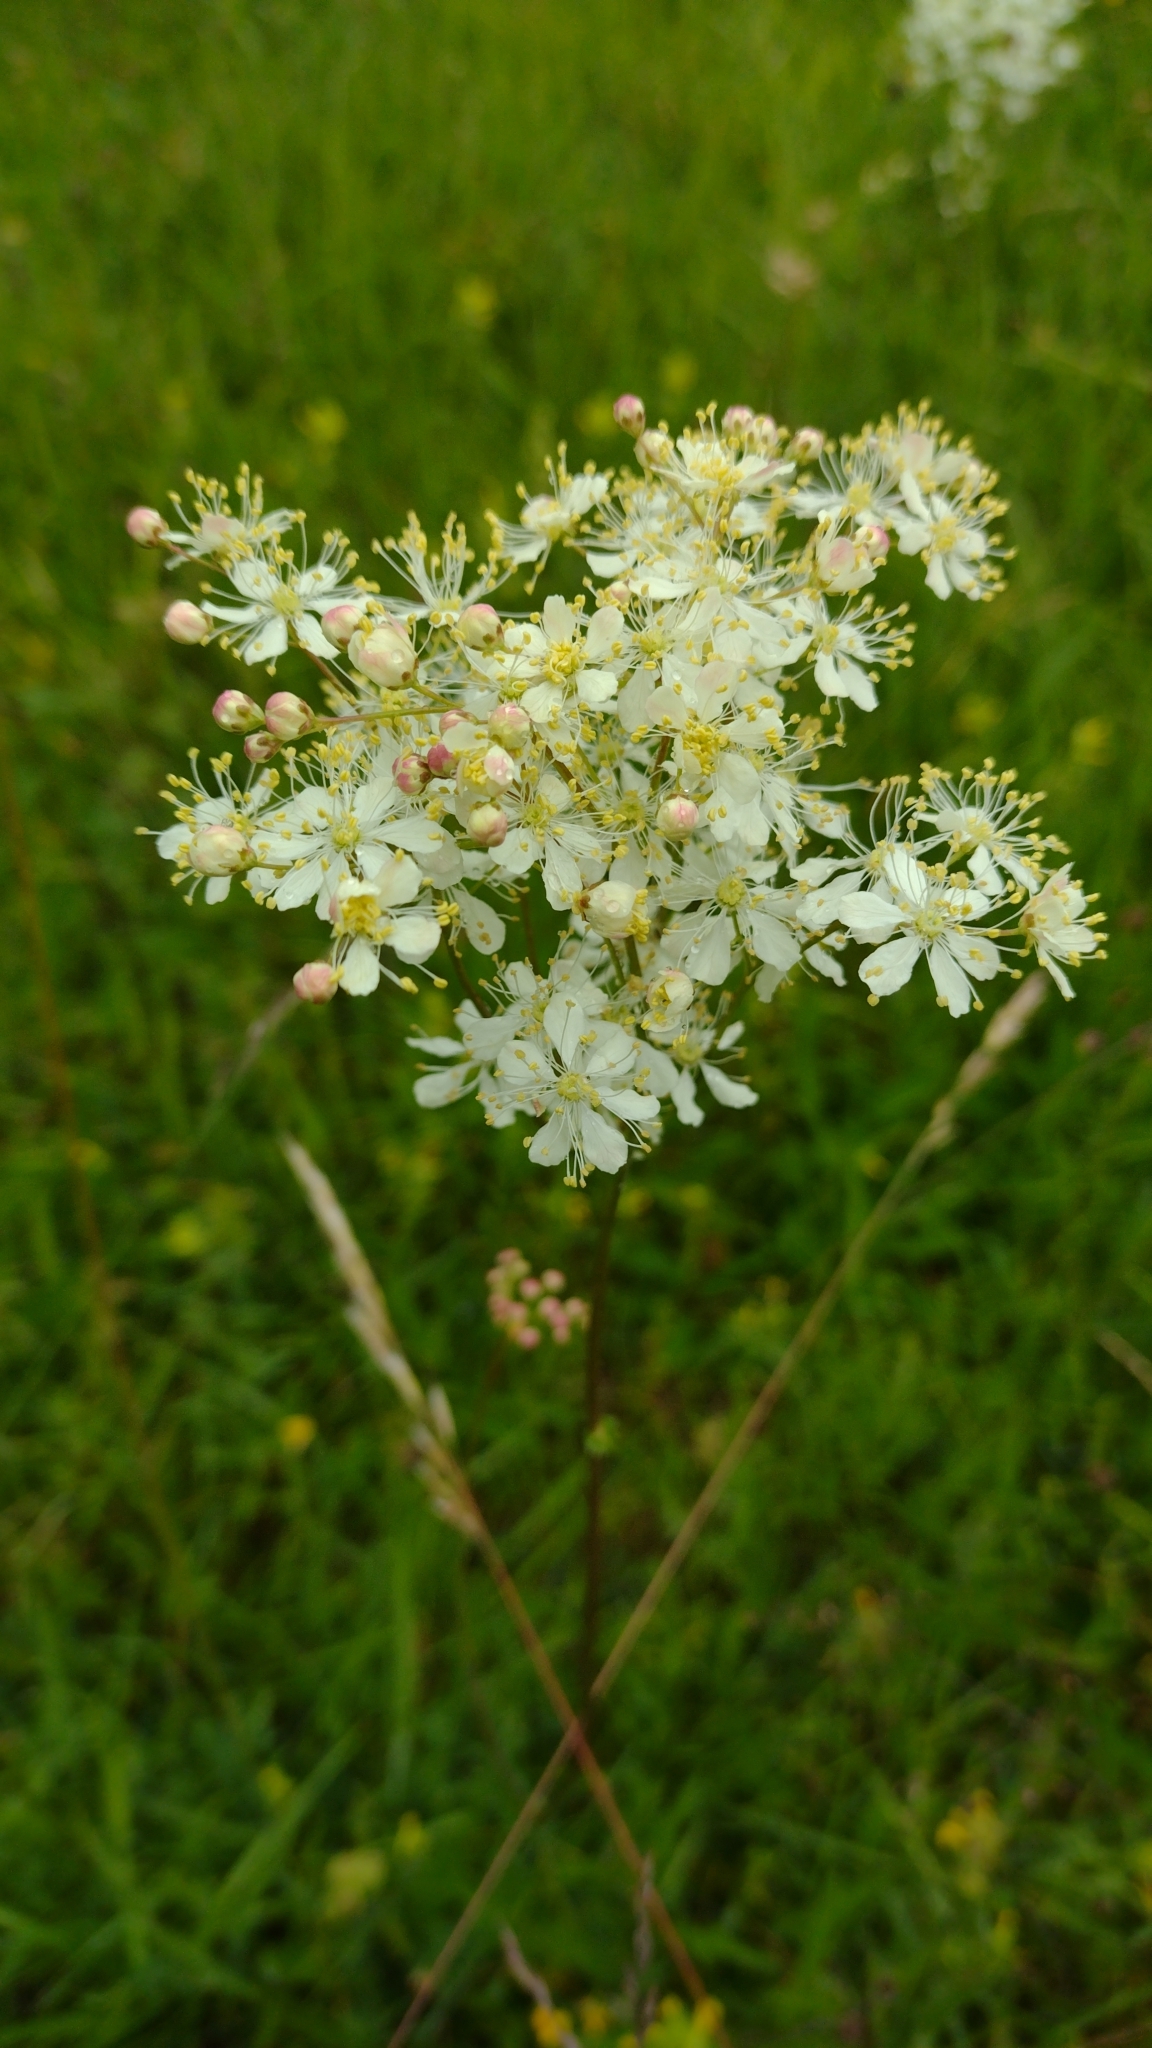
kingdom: Plantae
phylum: Tracheophyta
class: Magnoliopsida
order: Rosales
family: Rosaceae
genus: Filipendula
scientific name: Filipendula vulgaris
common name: Dropwort
